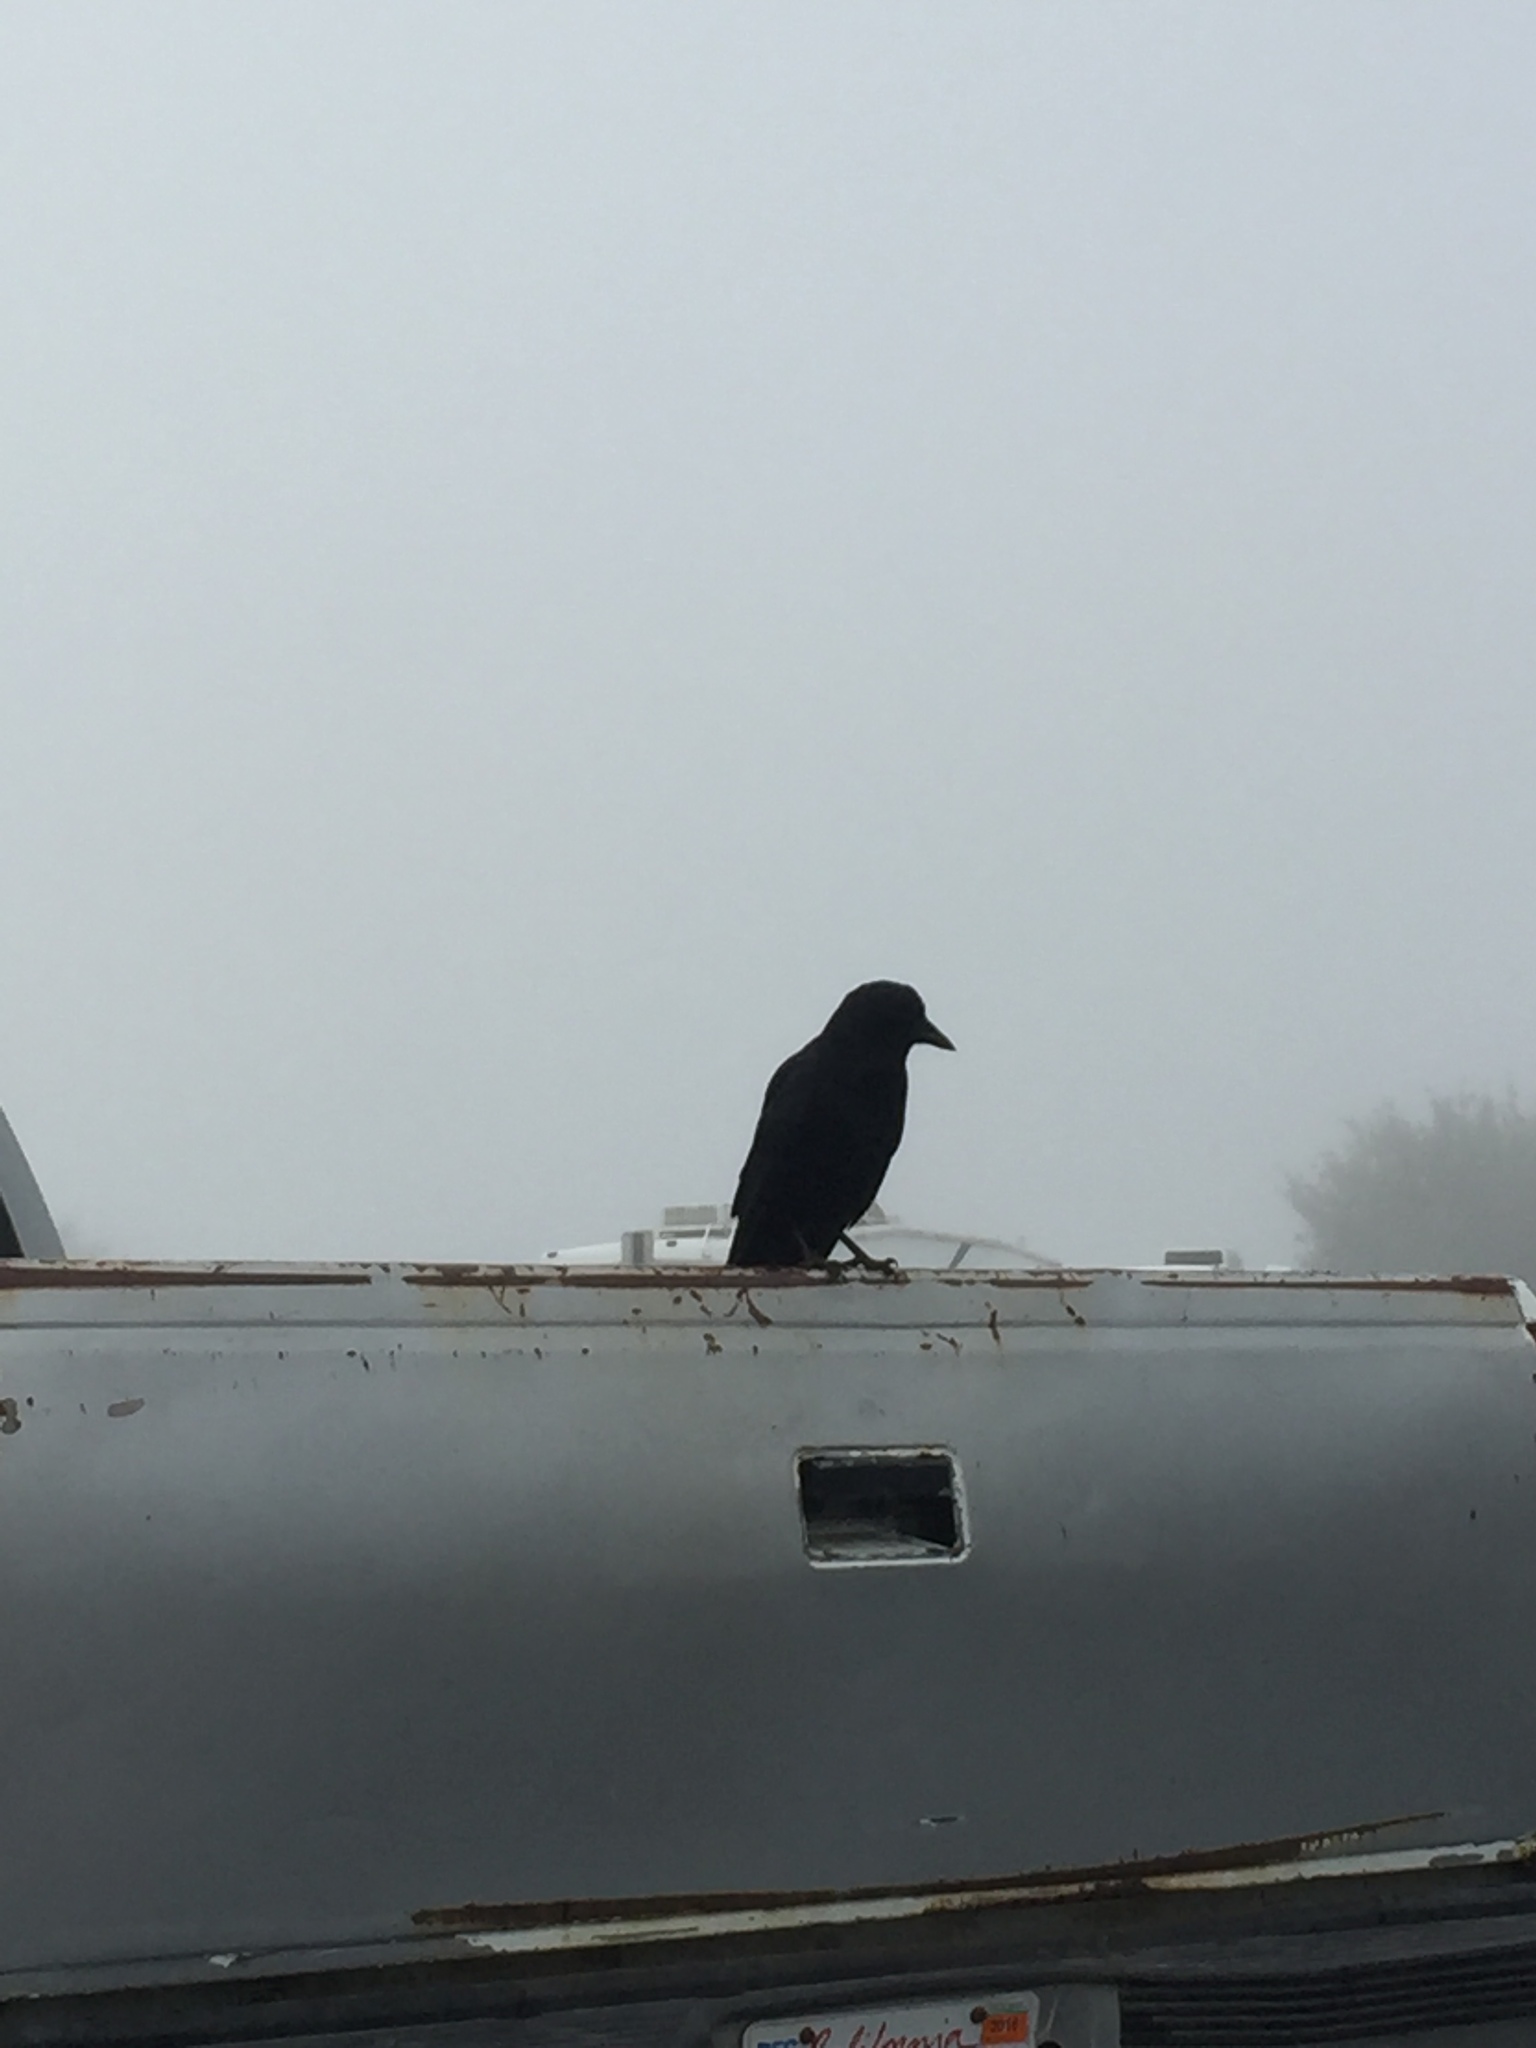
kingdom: Animalia
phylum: Chordata
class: Aves
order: Passeriformes
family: Corvidae
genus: Corvus
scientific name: Corvus brachyrhynchos
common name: American crow
